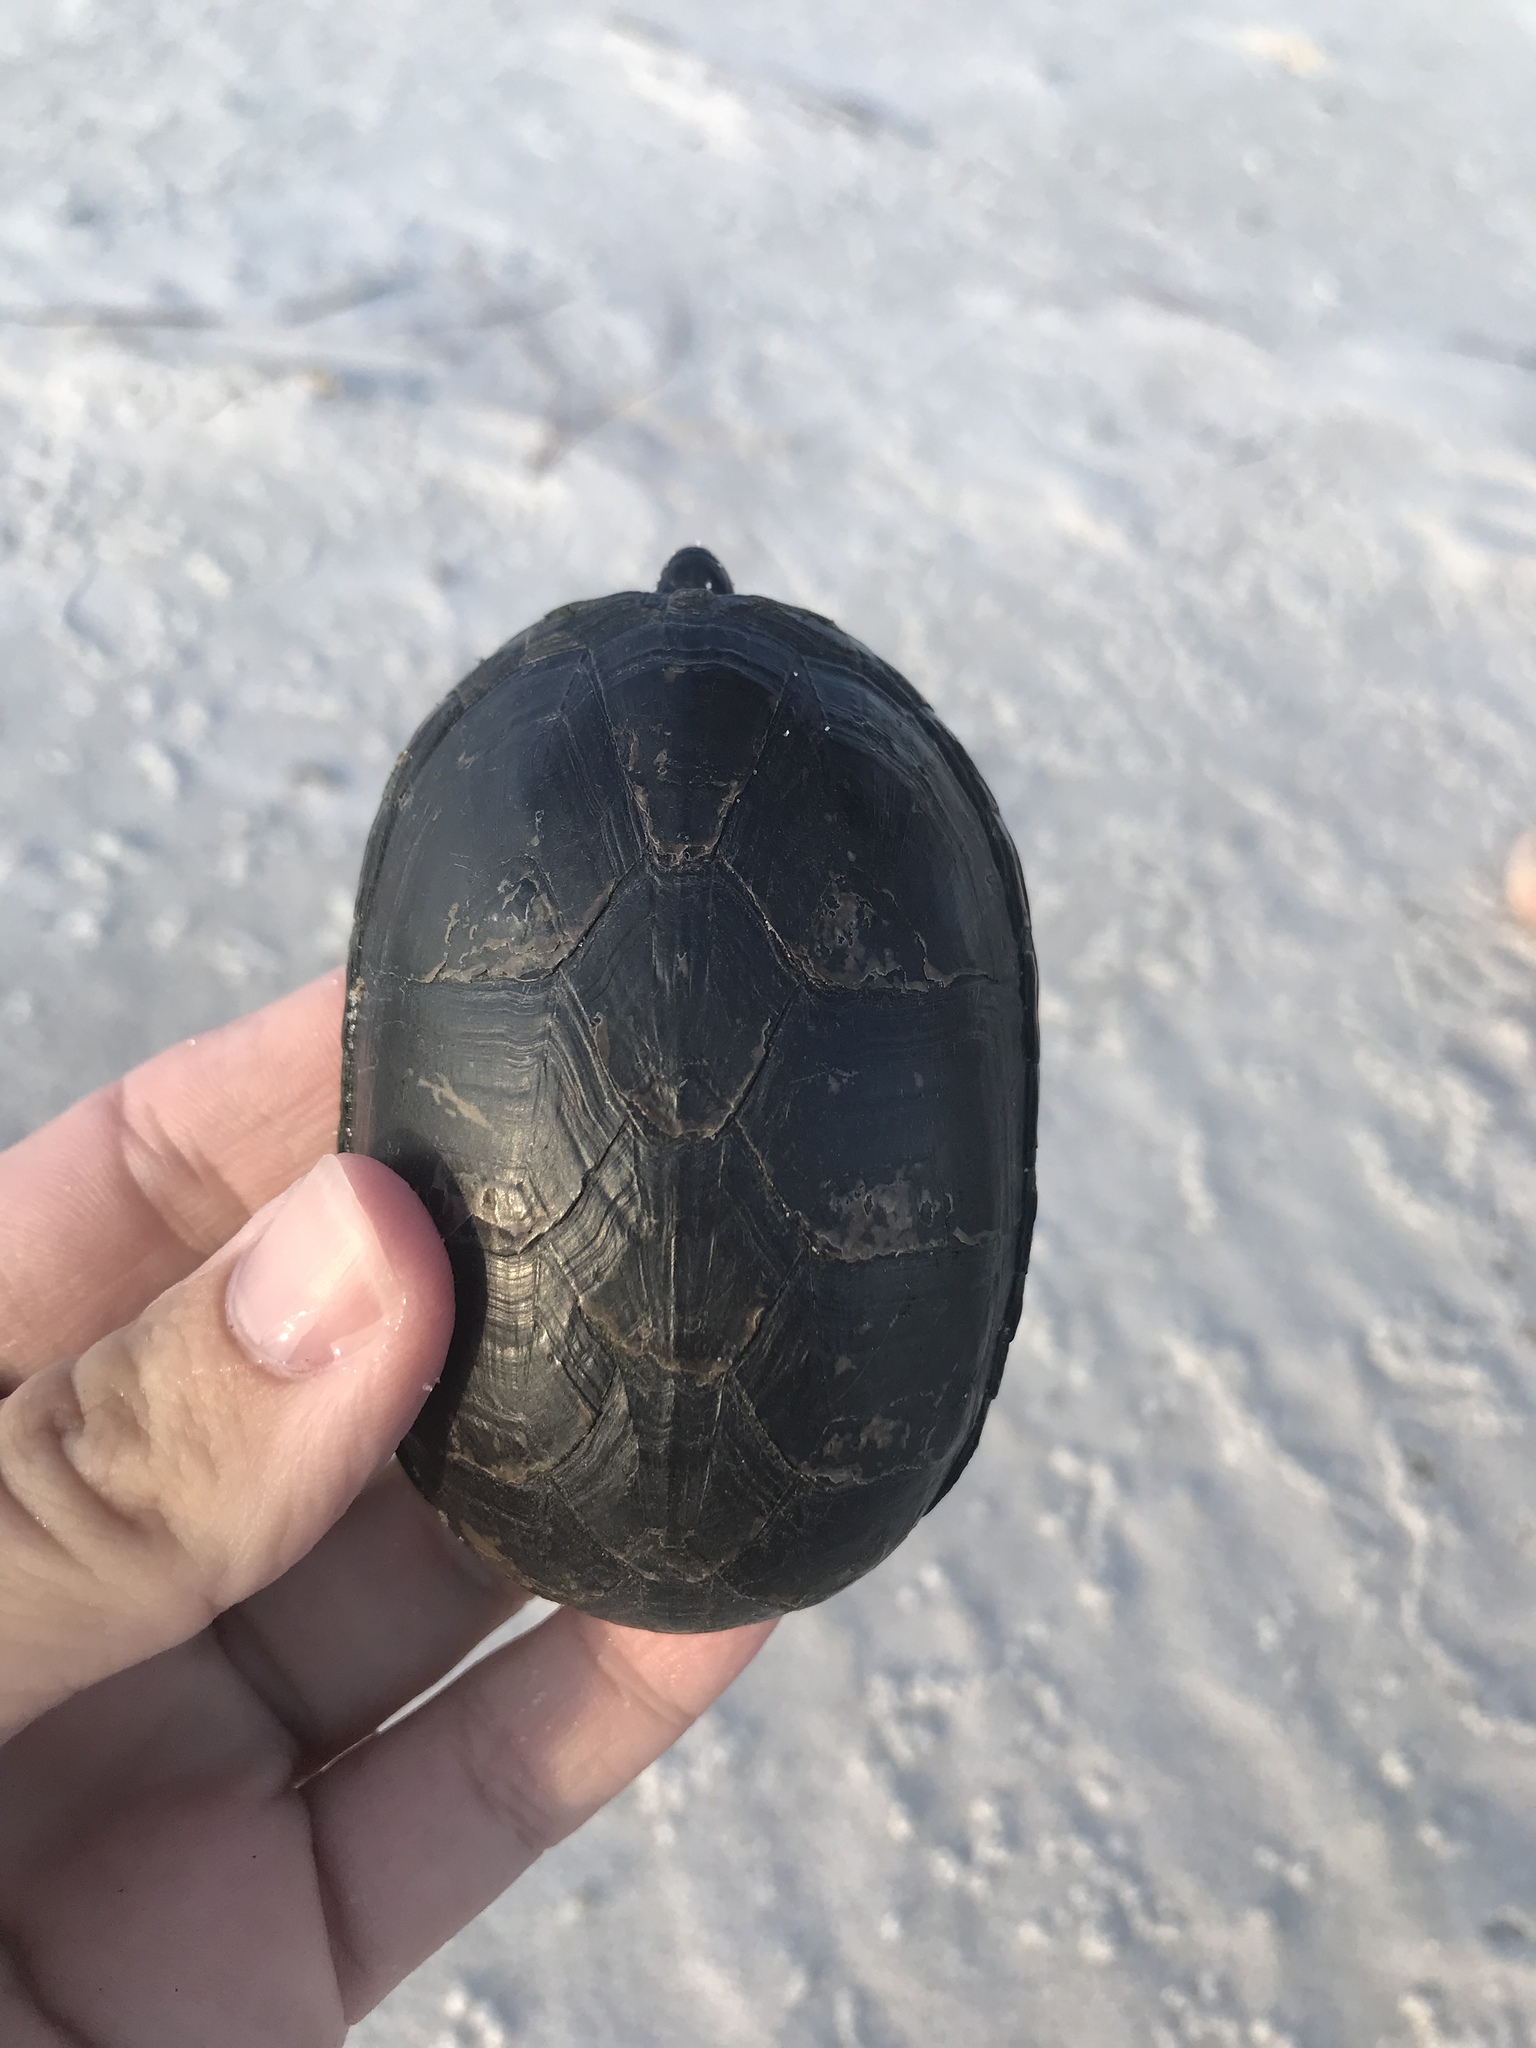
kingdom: Animalia
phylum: Chordata
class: Testudines
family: Kinosternidae
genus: Kinosternon
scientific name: Kinosternon subrubrum
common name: Eastern mud turtle
